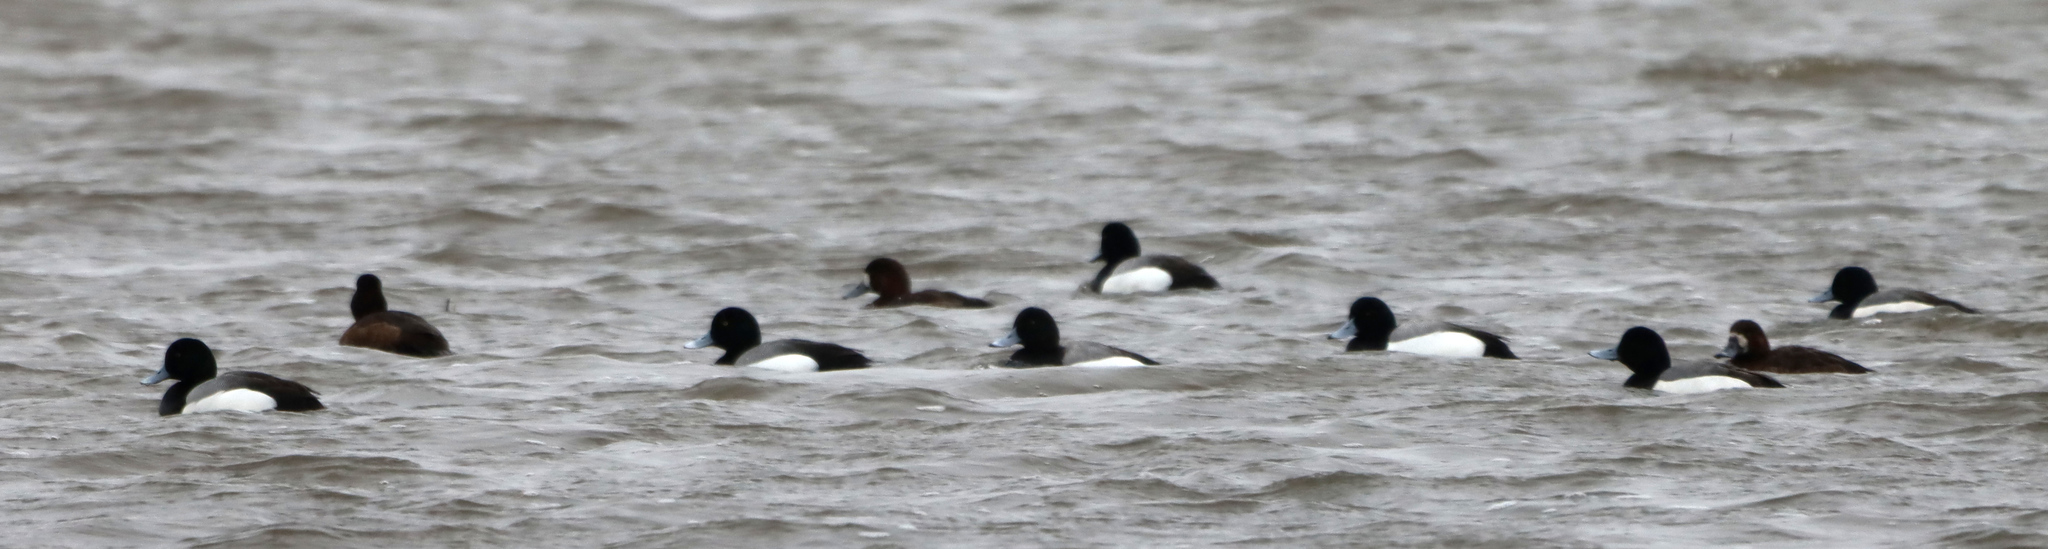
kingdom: Animalia
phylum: Chordata
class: Aves
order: Anseriformes
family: Anatidae
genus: Aythya
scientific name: Aythya marila
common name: Greater scaup
